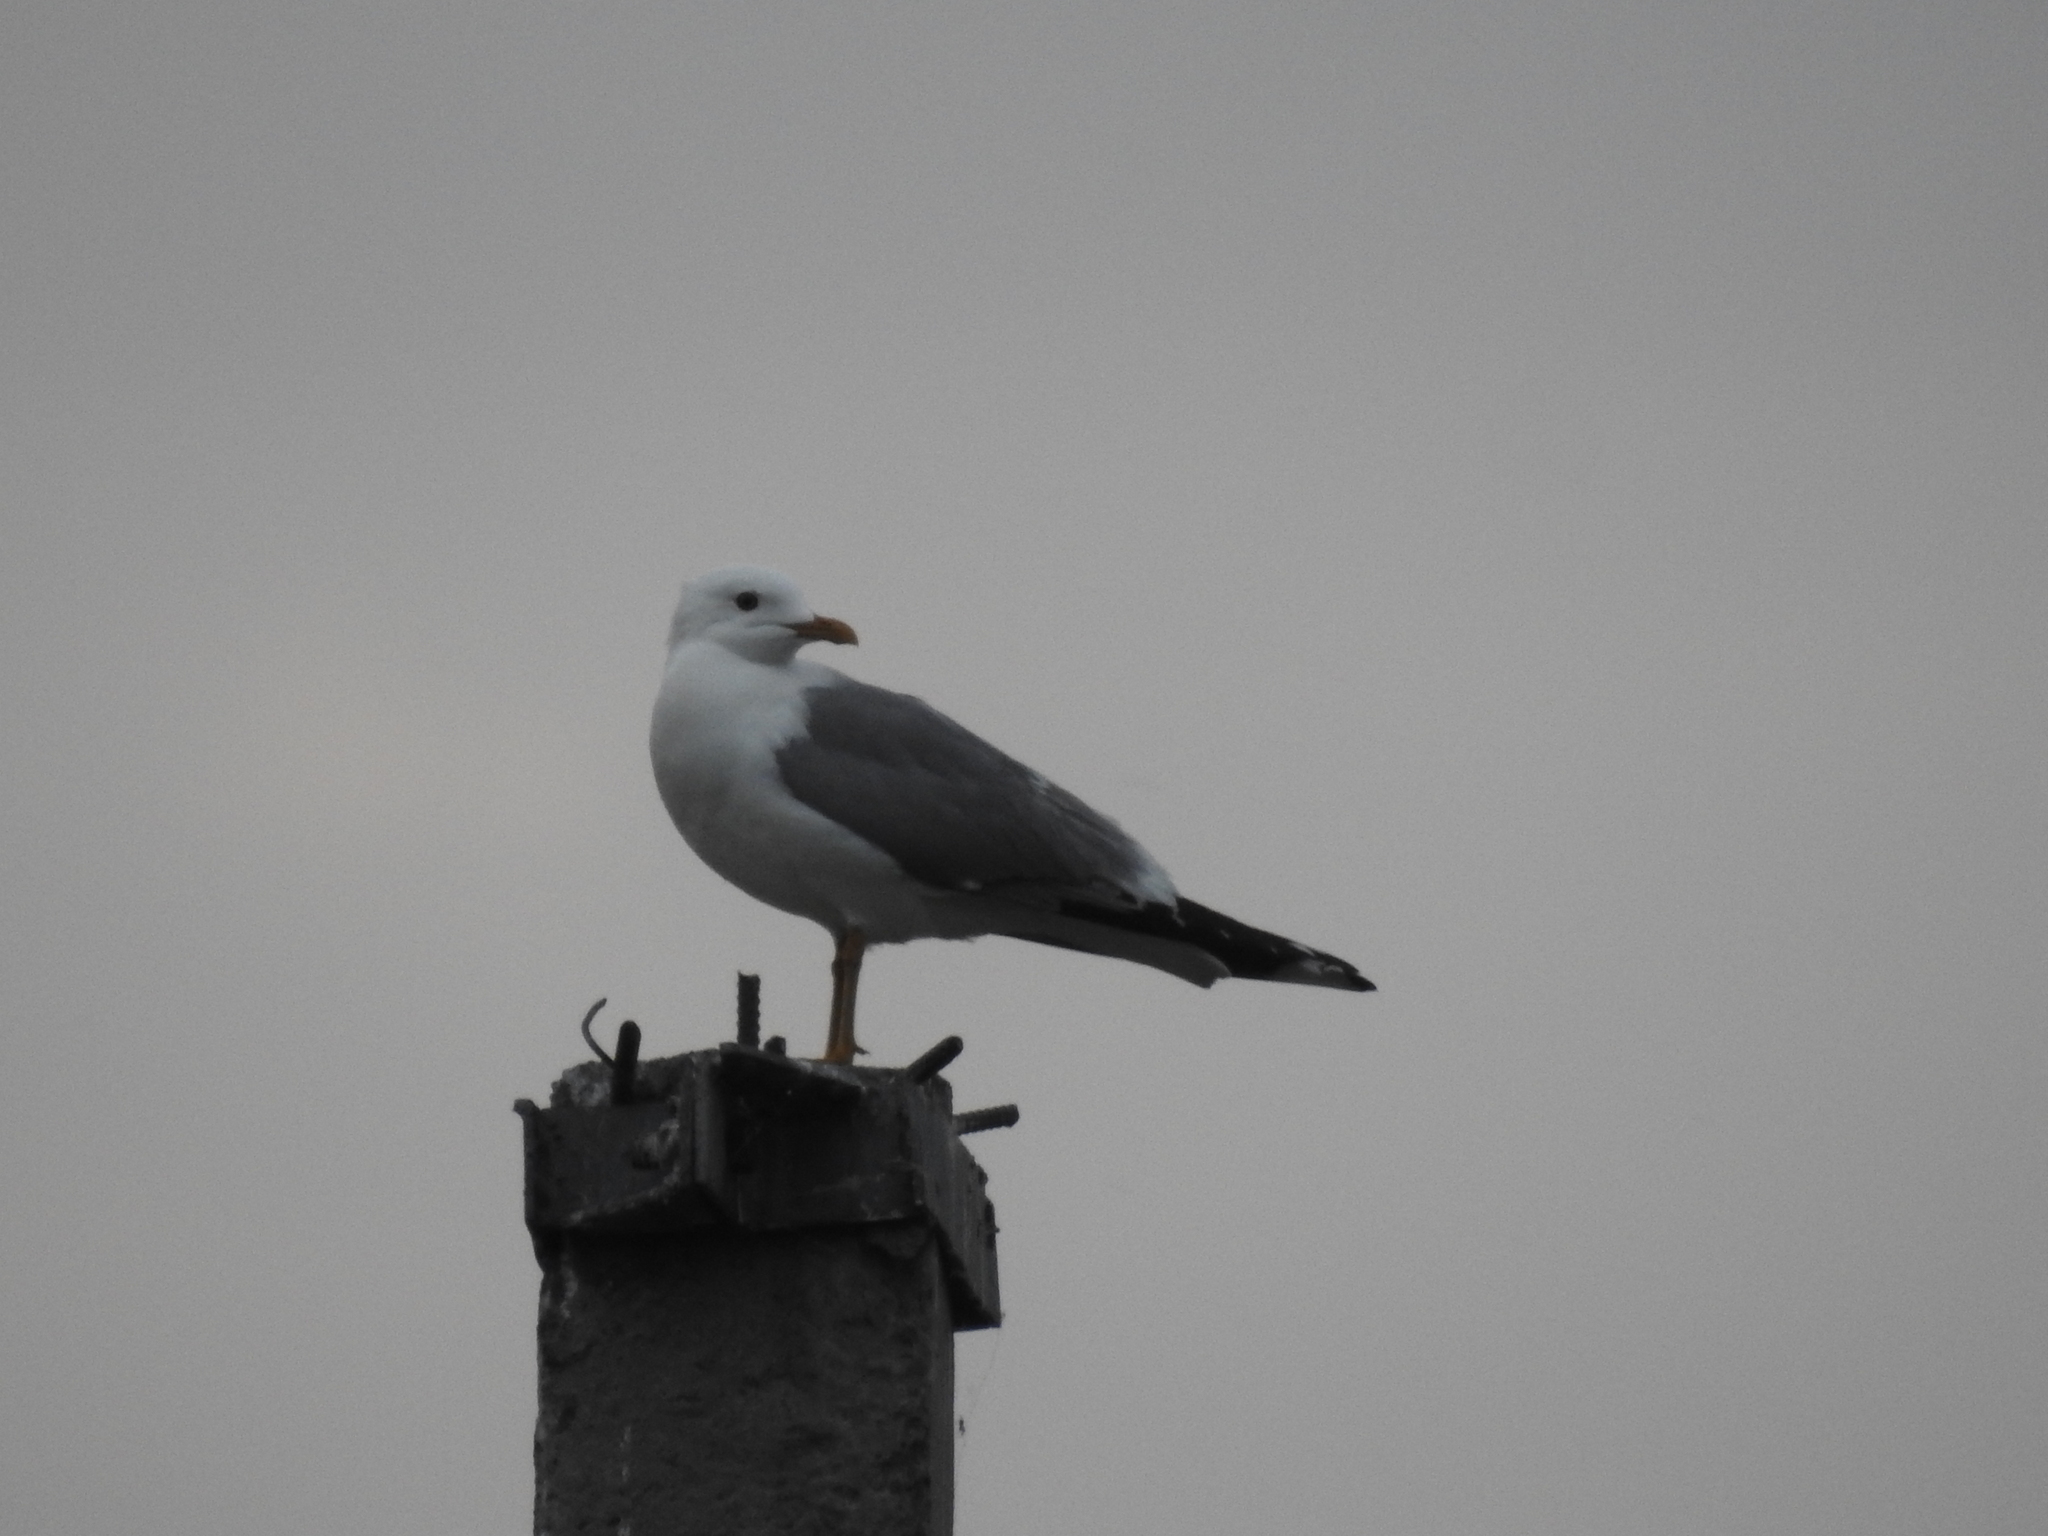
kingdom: Animalia
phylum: Chordata
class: Aves
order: Charadriiformes
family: Laridae
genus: Larus
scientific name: Larus canus
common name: Mew gull
